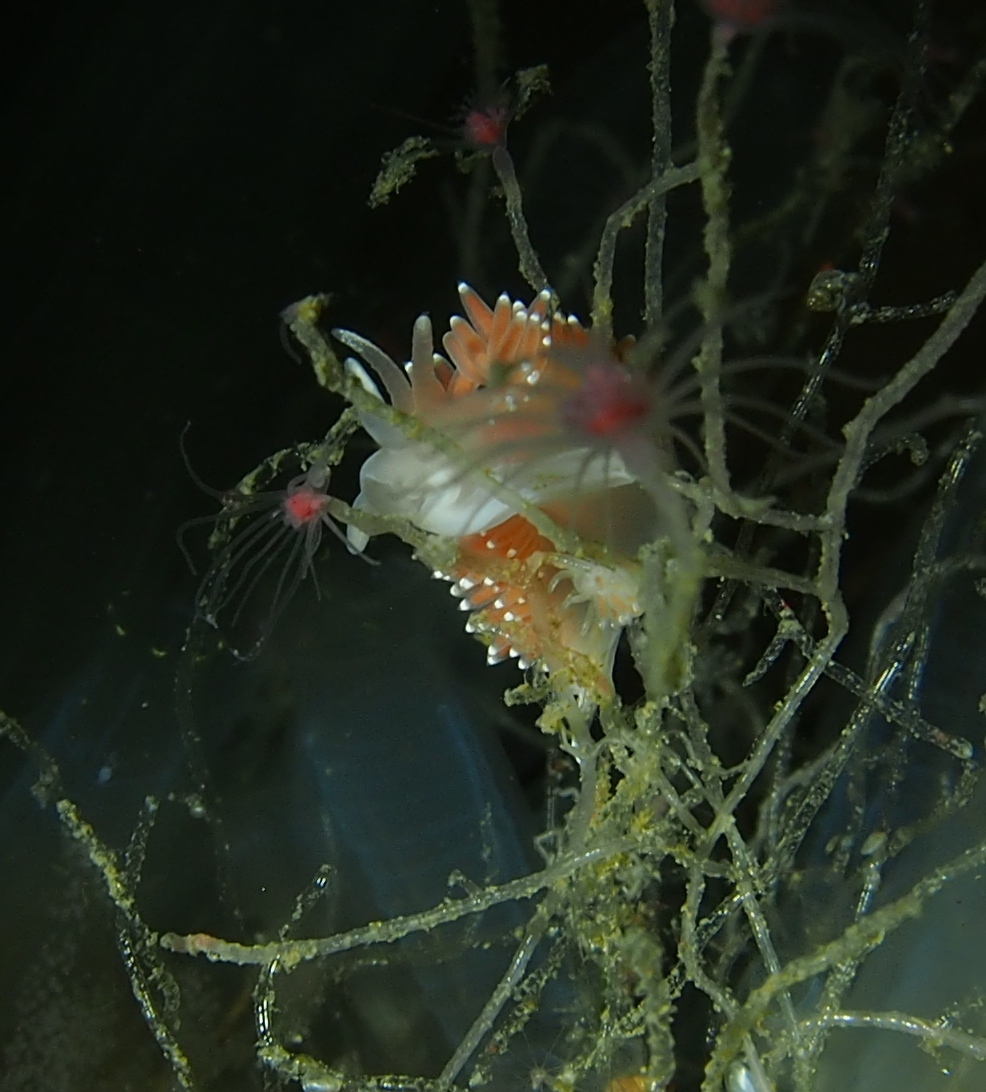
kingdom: Animalia
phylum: Mollusca
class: Gastropoda
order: Nudibranchia
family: Coryphellidae
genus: Coryphella
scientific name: Coryphella verrucosa
